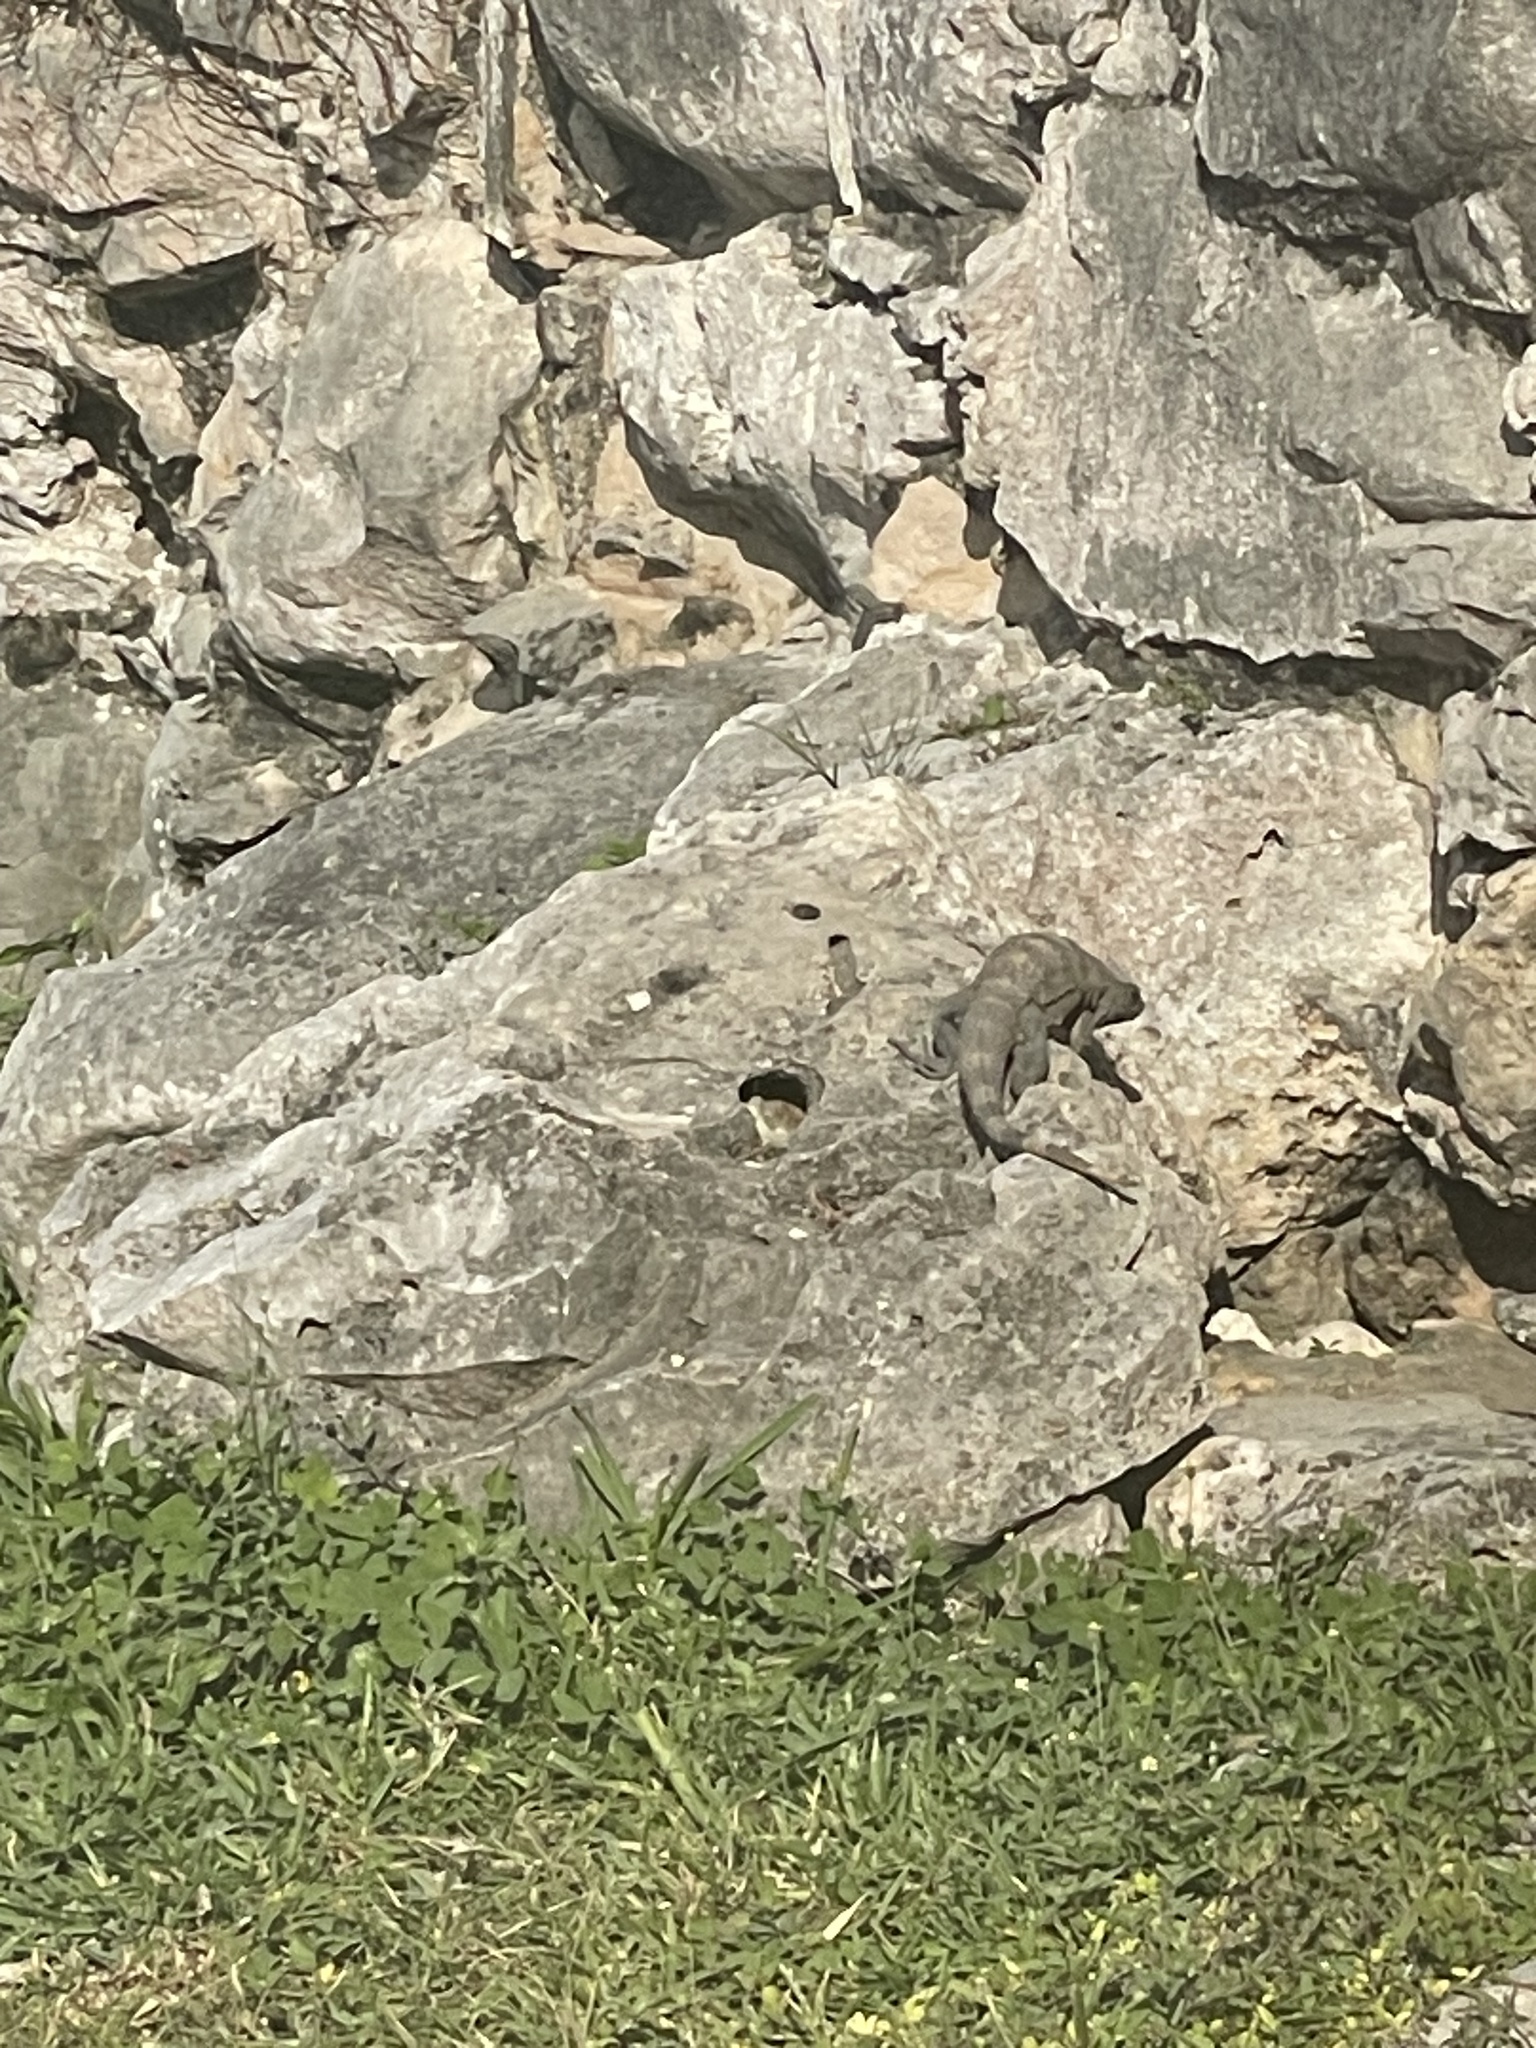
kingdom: Animalia
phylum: Chordata
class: Squamata
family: Iguanidae
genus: Ctenosaura
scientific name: Ctenosaura similis
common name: Black spiny-tailed iguana
